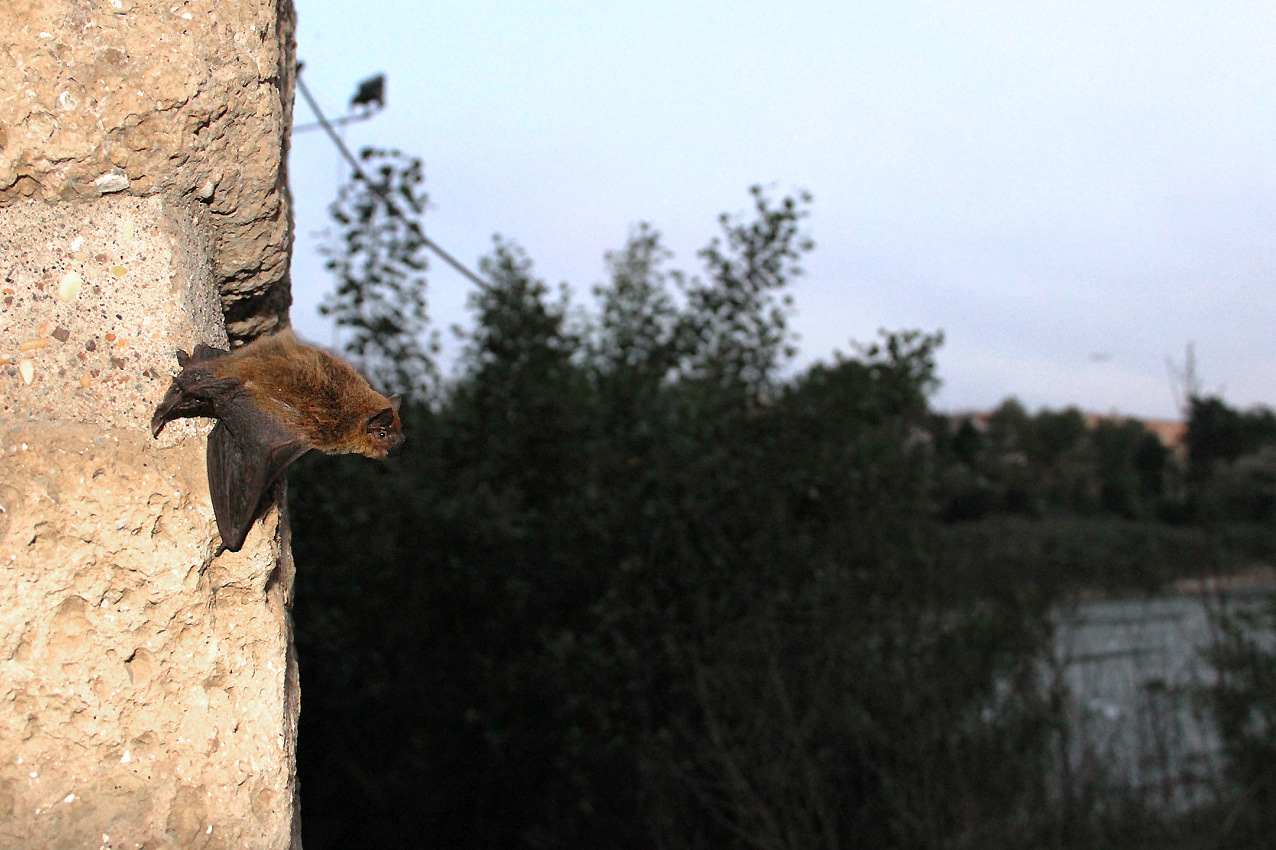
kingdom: Animalia
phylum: Chordata
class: Mammalia
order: Chiroptera
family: Vespertilionidae
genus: Pipistrellus
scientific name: Pipistrellus kuhlii
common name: Kuhl's pipistrelle
